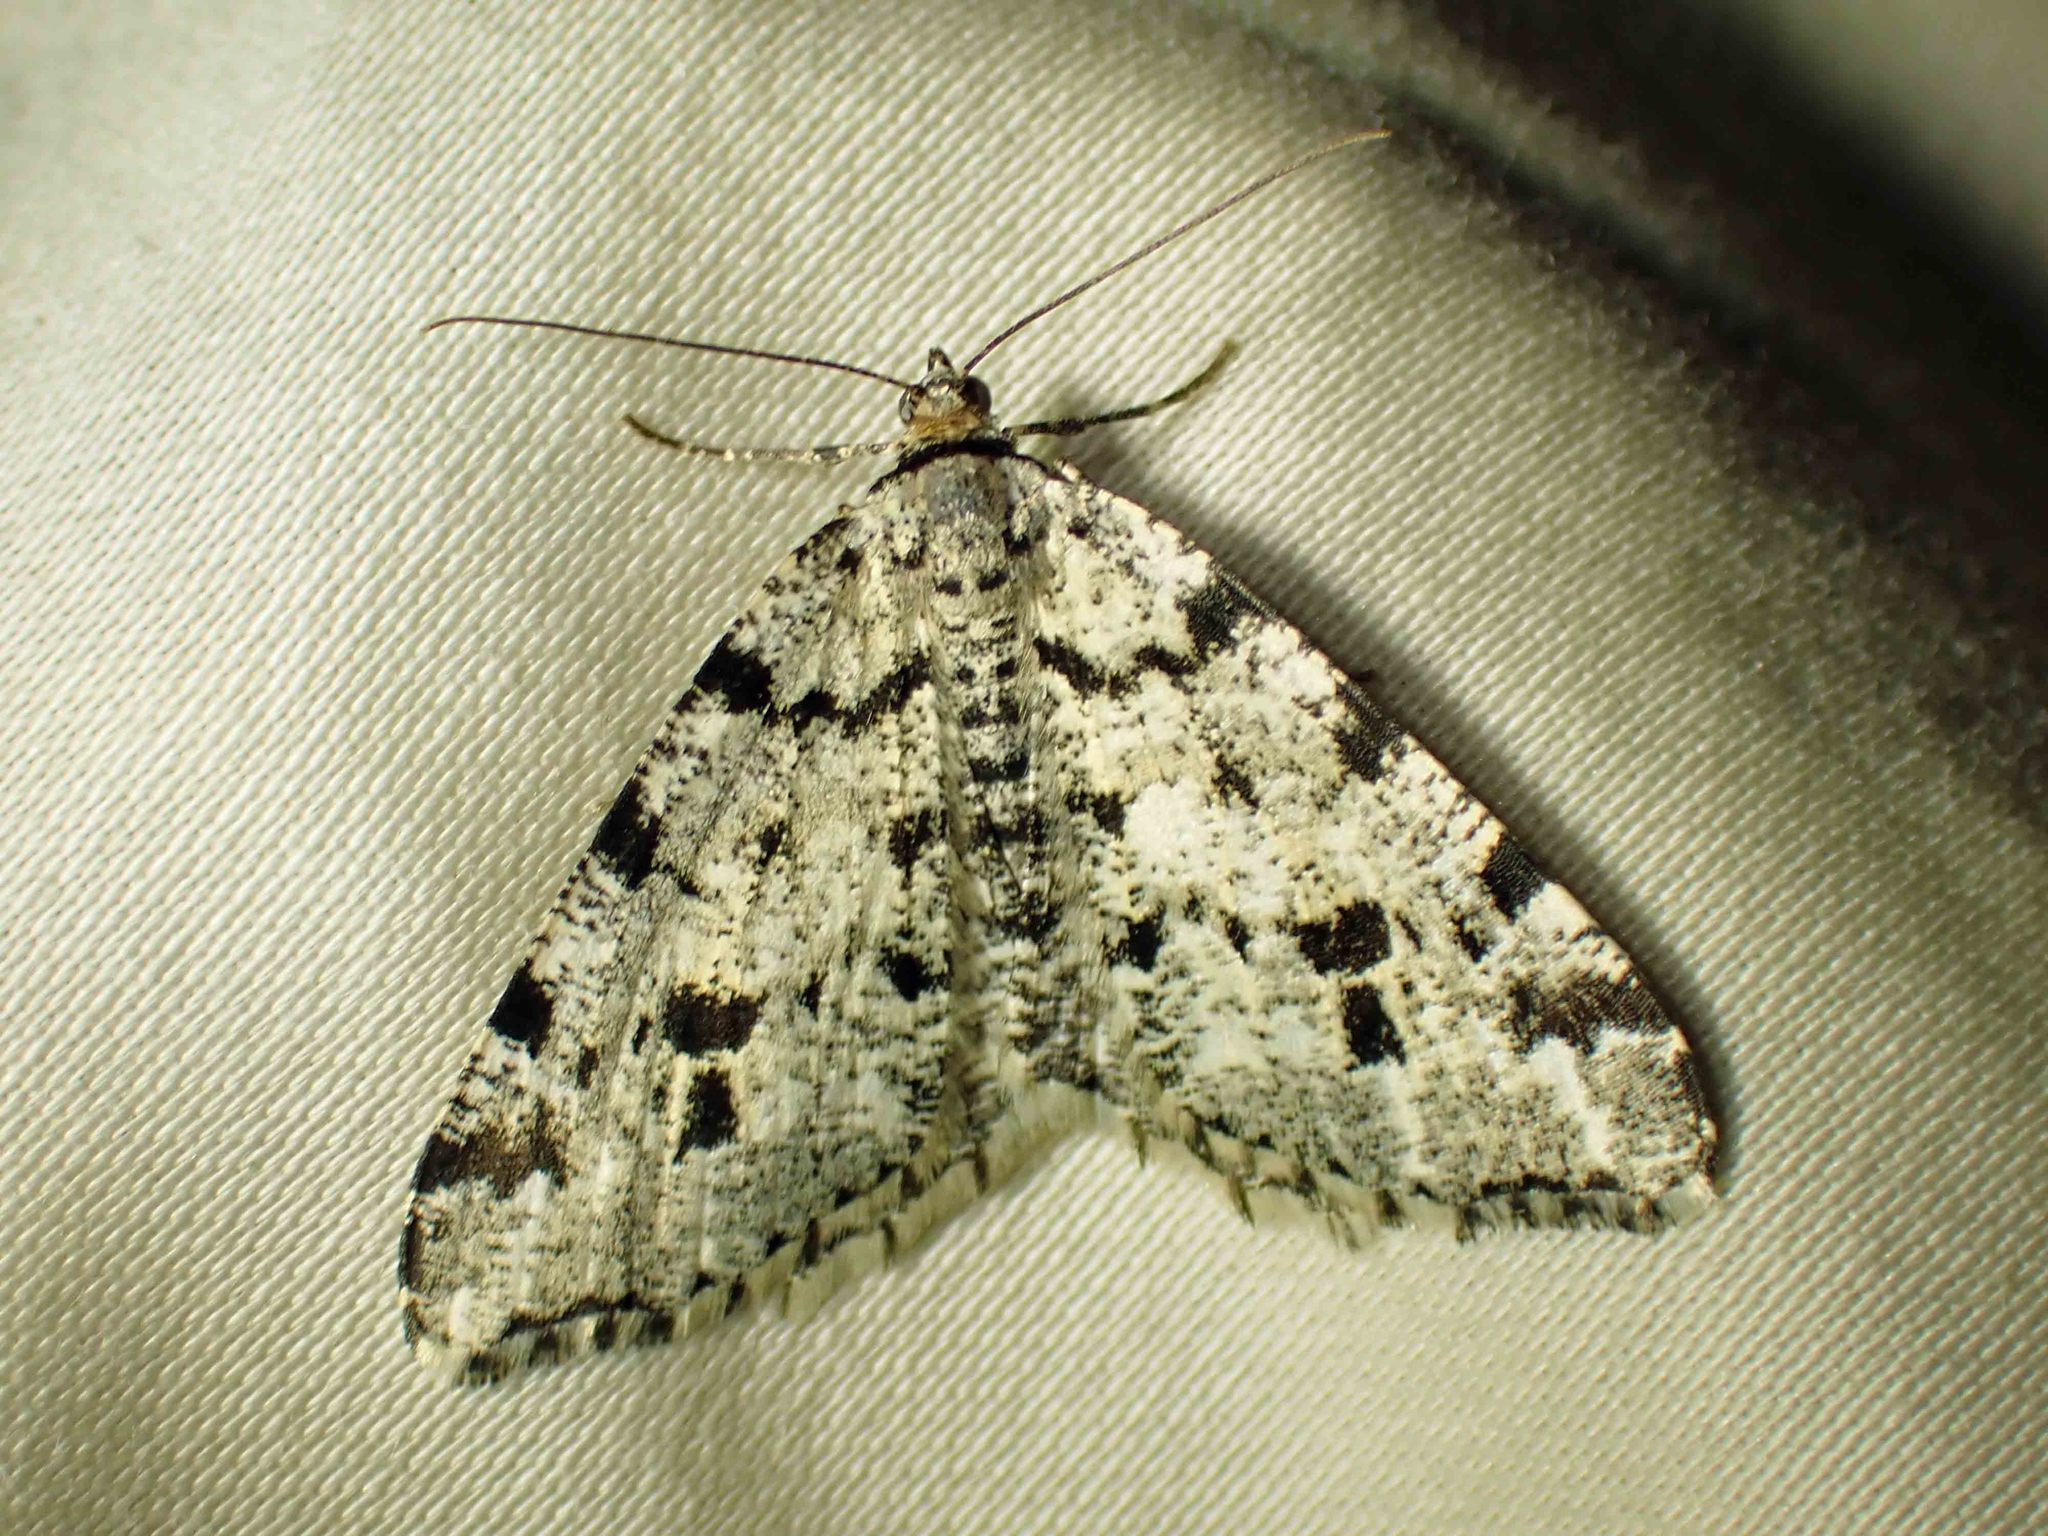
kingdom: Animalia
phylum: Arthropoda
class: Insecta
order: Lepidoptera
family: Geometridae
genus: Macaria
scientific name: Macaria oweni
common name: Owen's angle
